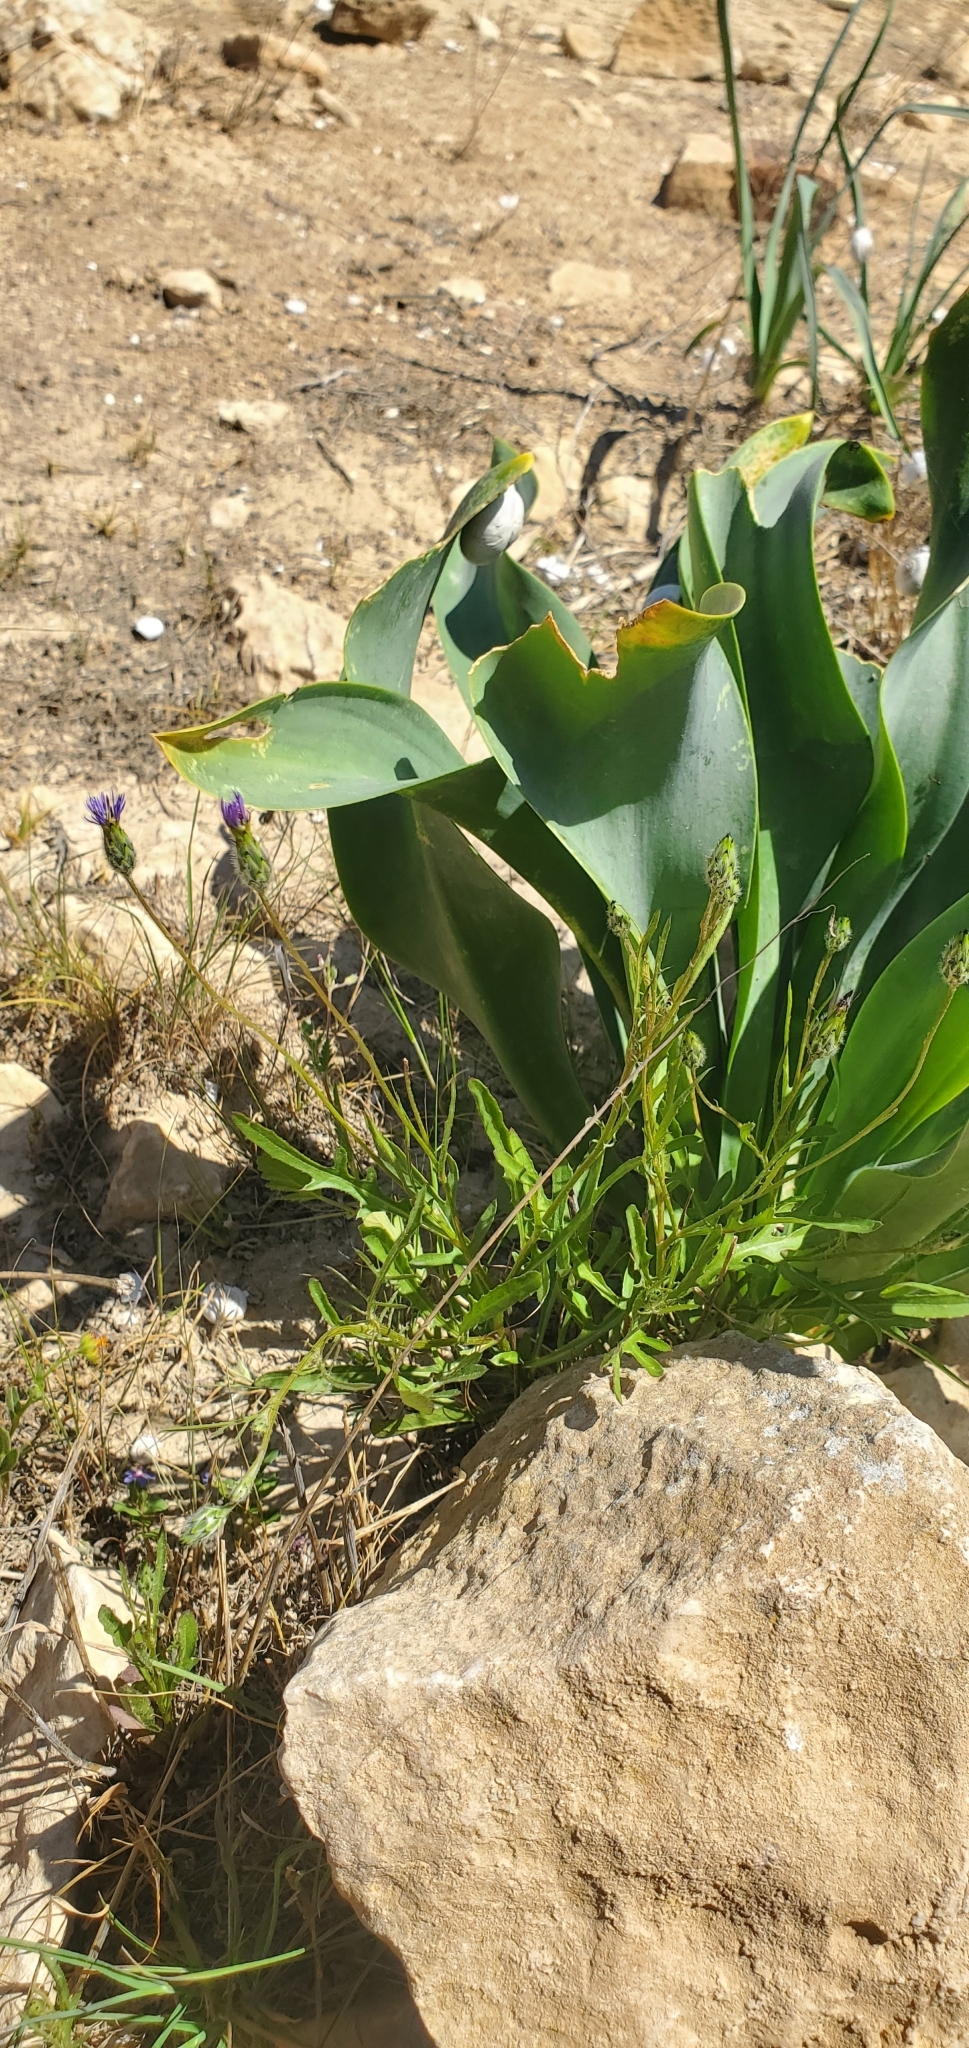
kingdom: Plantae
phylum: Tracheophyta
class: Magnoliopsida
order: Asterales
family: Asteraceae
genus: Volutaria
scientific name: Volutaria crupinoides
